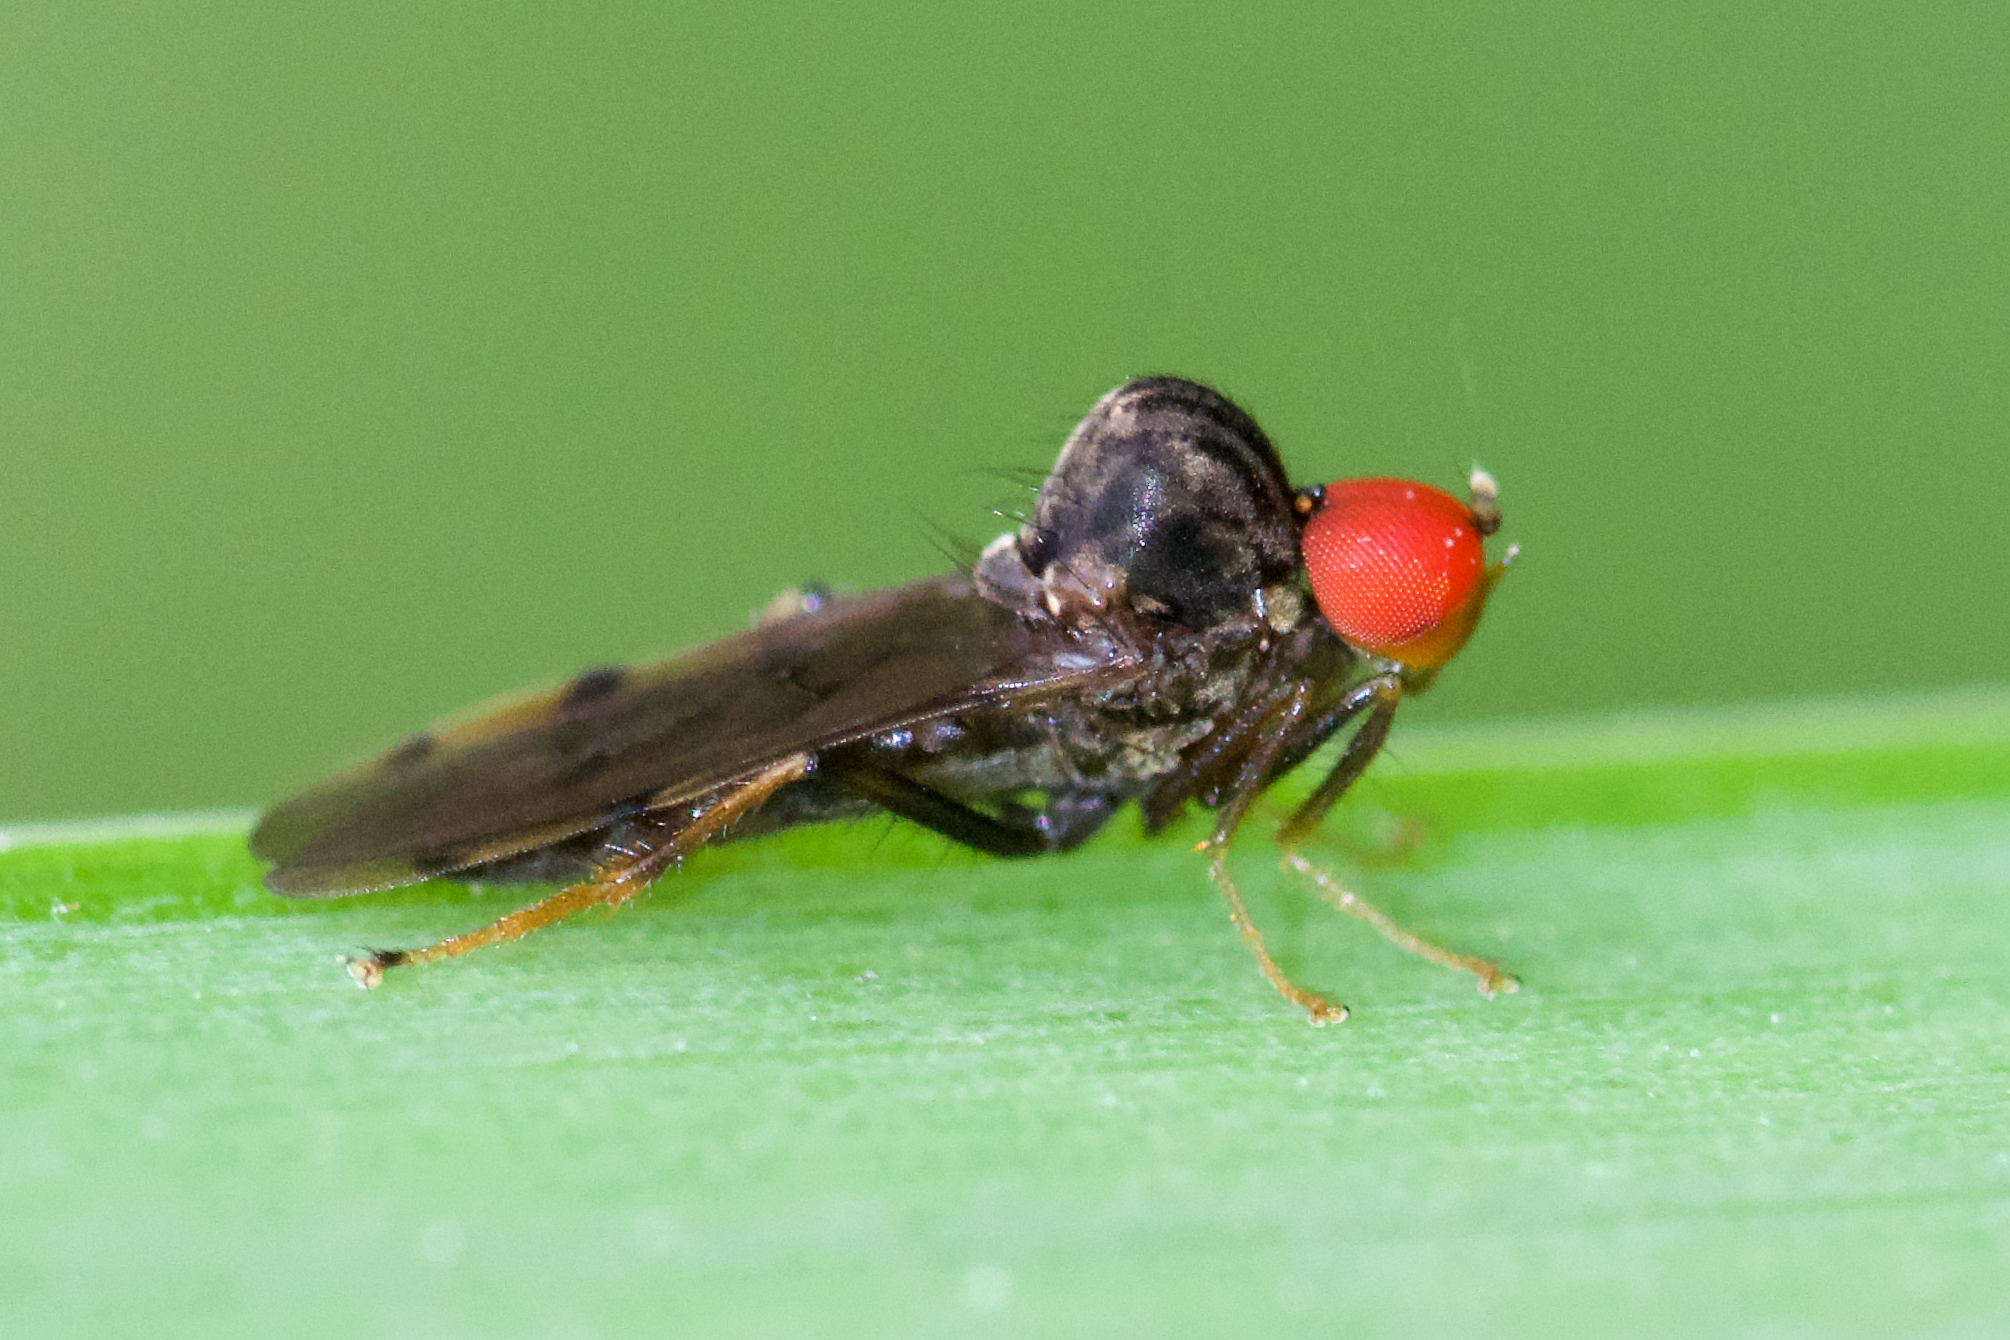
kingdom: Animalia
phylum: Arthropoda
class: Insecta
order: Diptera
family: Hybotidae
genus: Syneches
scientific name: Syneches simplex
